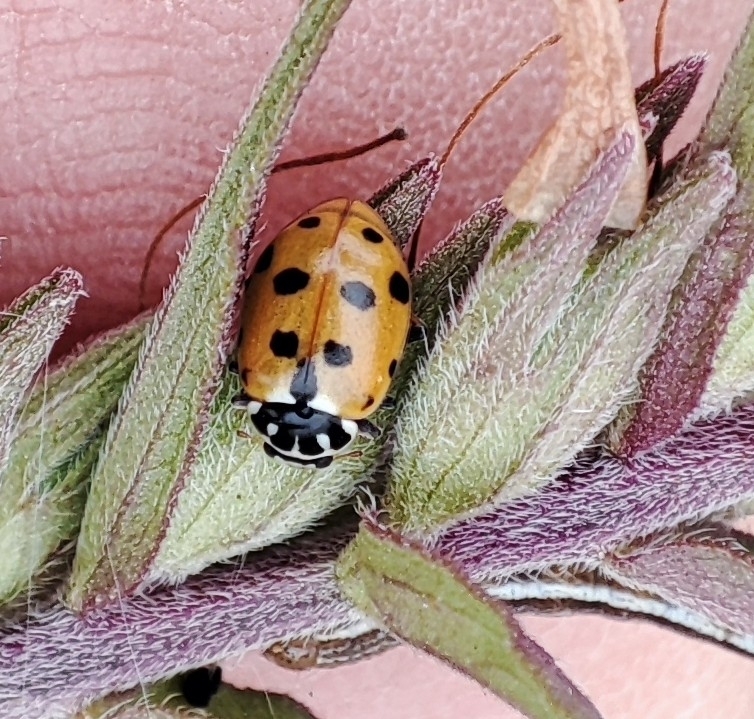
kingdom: Animalia
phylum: Arthropoda
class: Insecta
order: Coleoptera
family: Coccinellidae
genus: Hippodamia
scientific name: Hippodamia variegata
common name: Ladybird beetle
